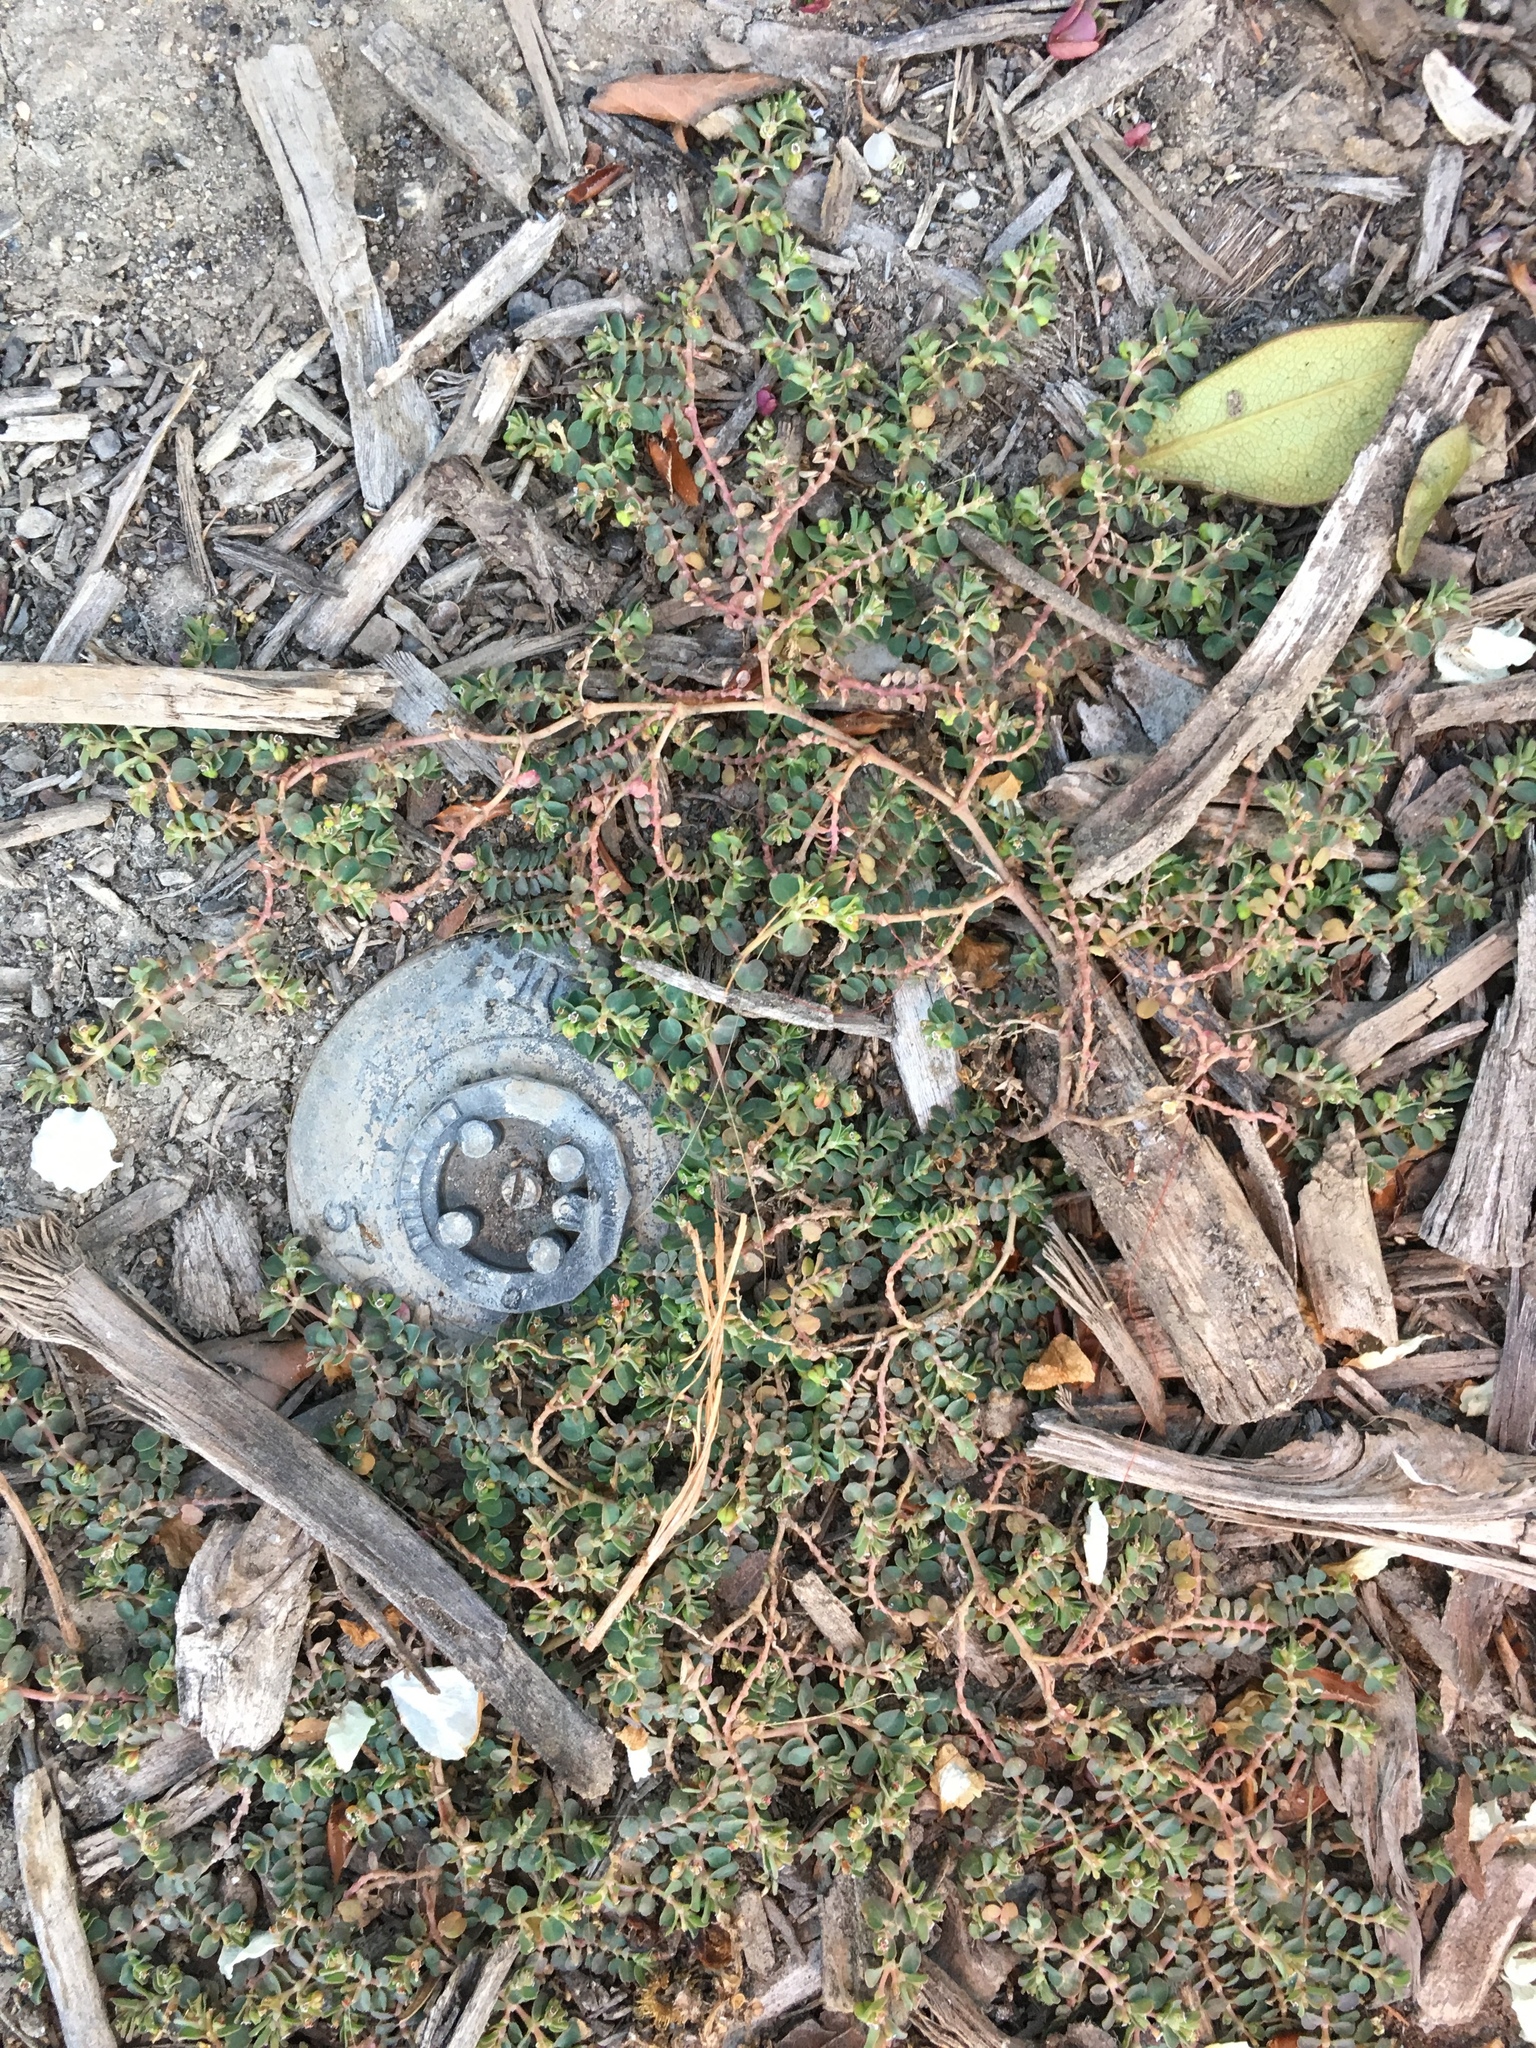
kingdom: Plantae
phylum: Tracheophyta
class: Magnoliopsida
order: Malpighiales
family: Euphorbiaceae
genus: Euphorbia
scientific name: Euphorbia serpens
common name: Matted sandmat
